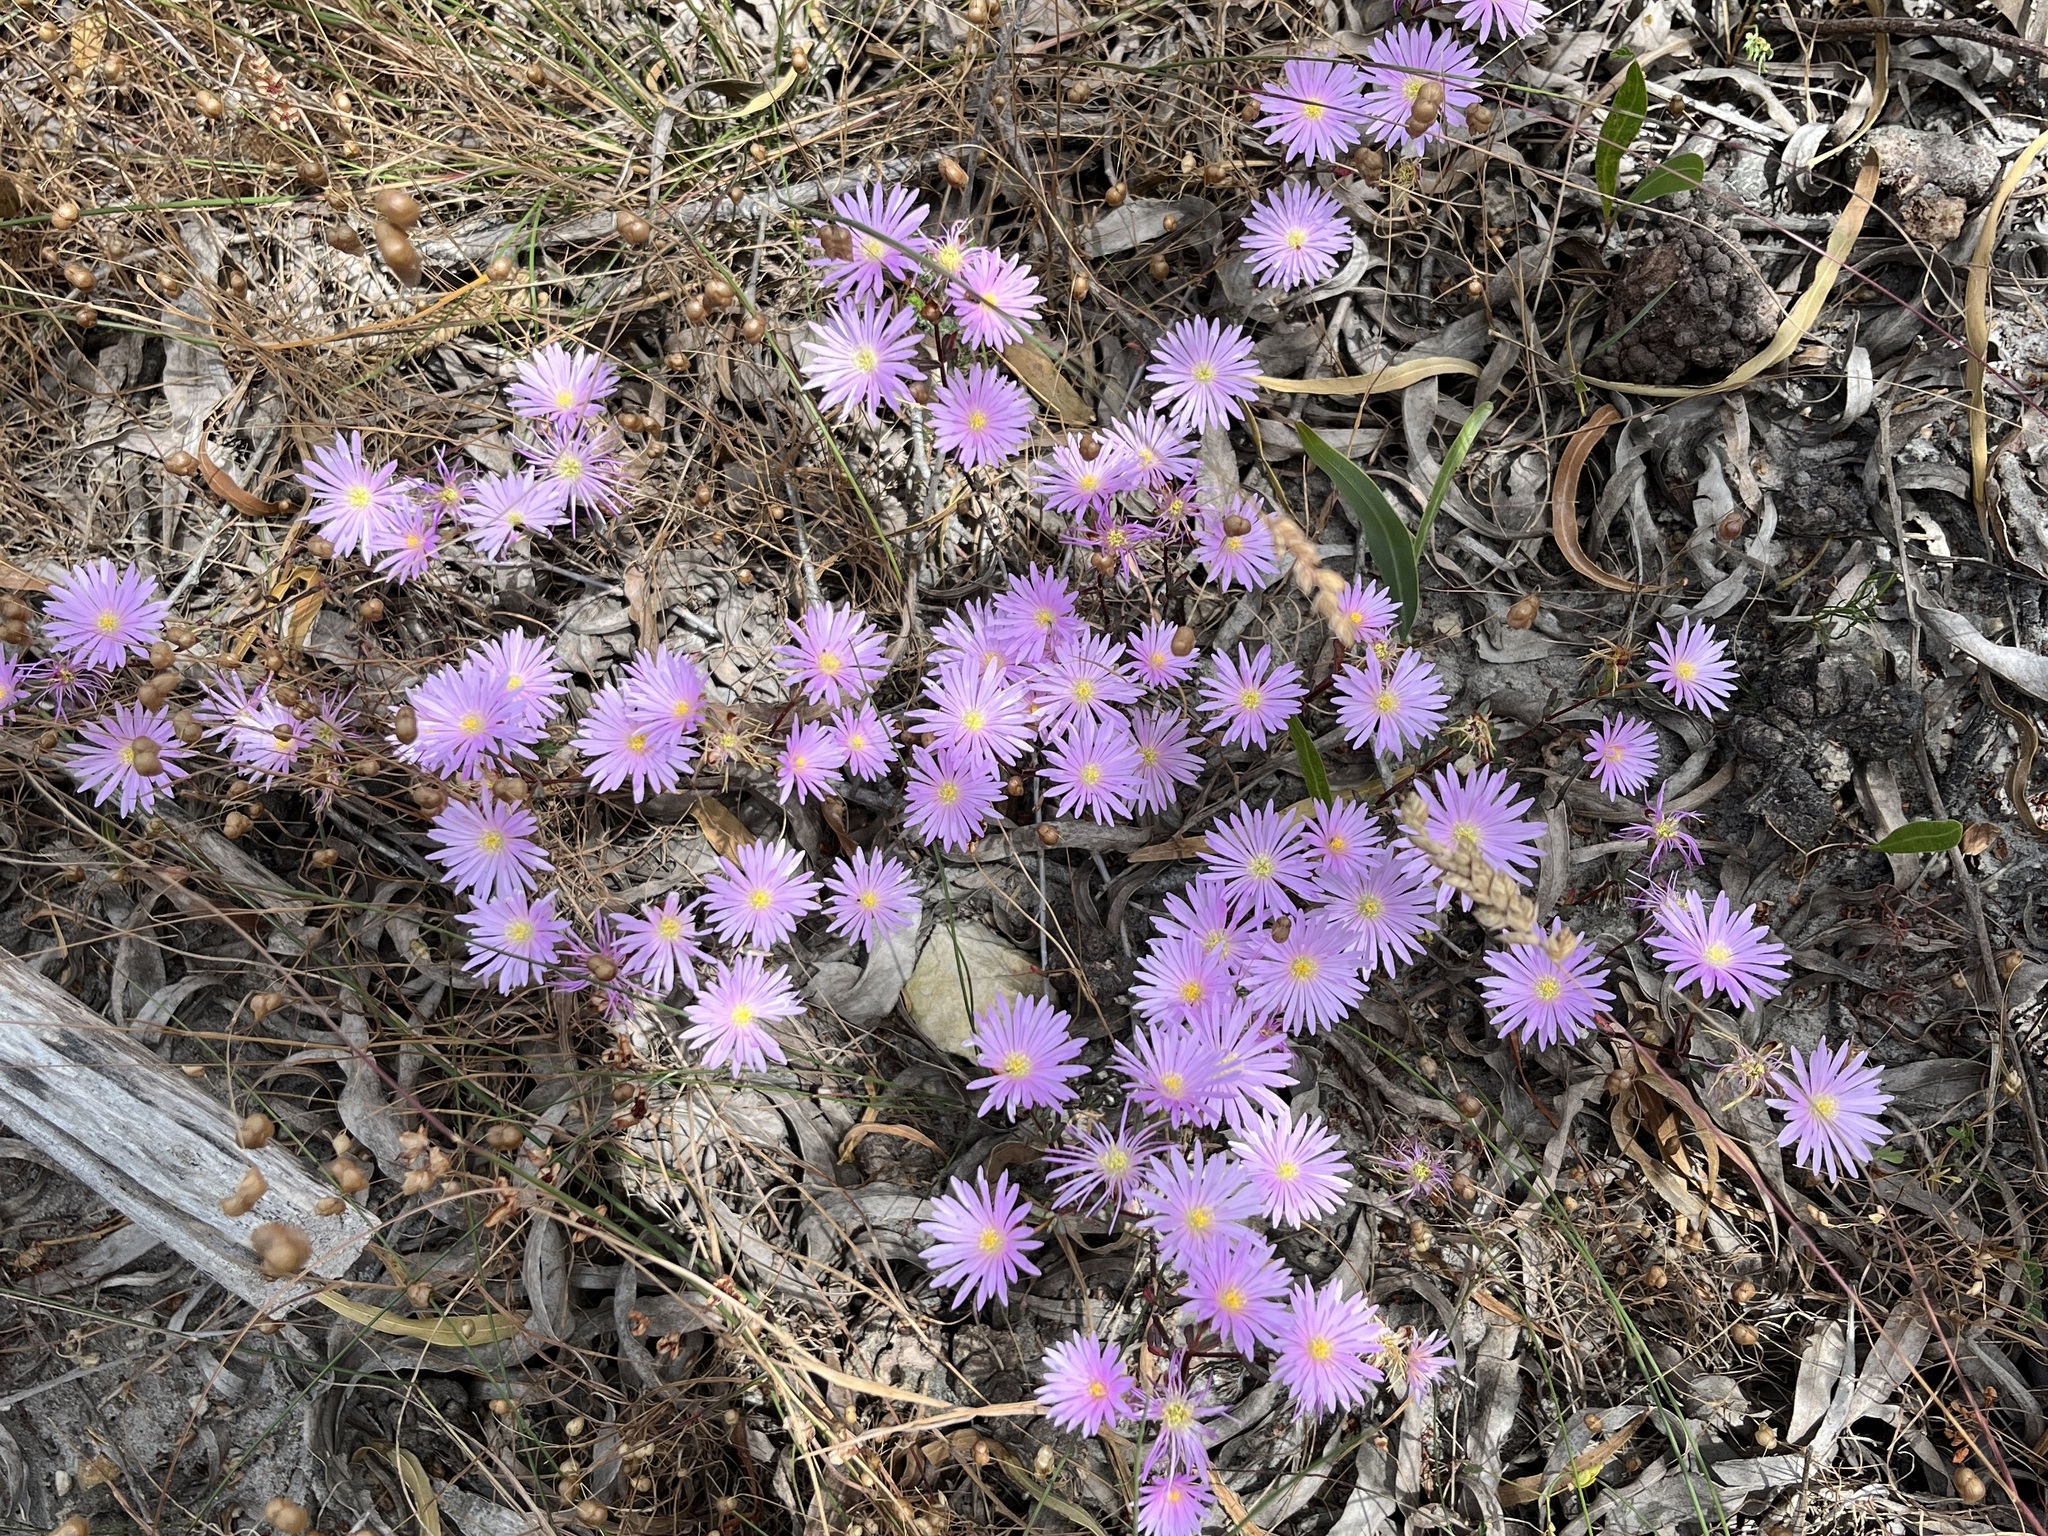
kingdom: Plantae
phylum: Tracheophyta
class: Magnoliopsida
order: Caryophyllales
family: Aizoaceae
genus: Lampranthus
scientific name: Lampranthus glomeratus
